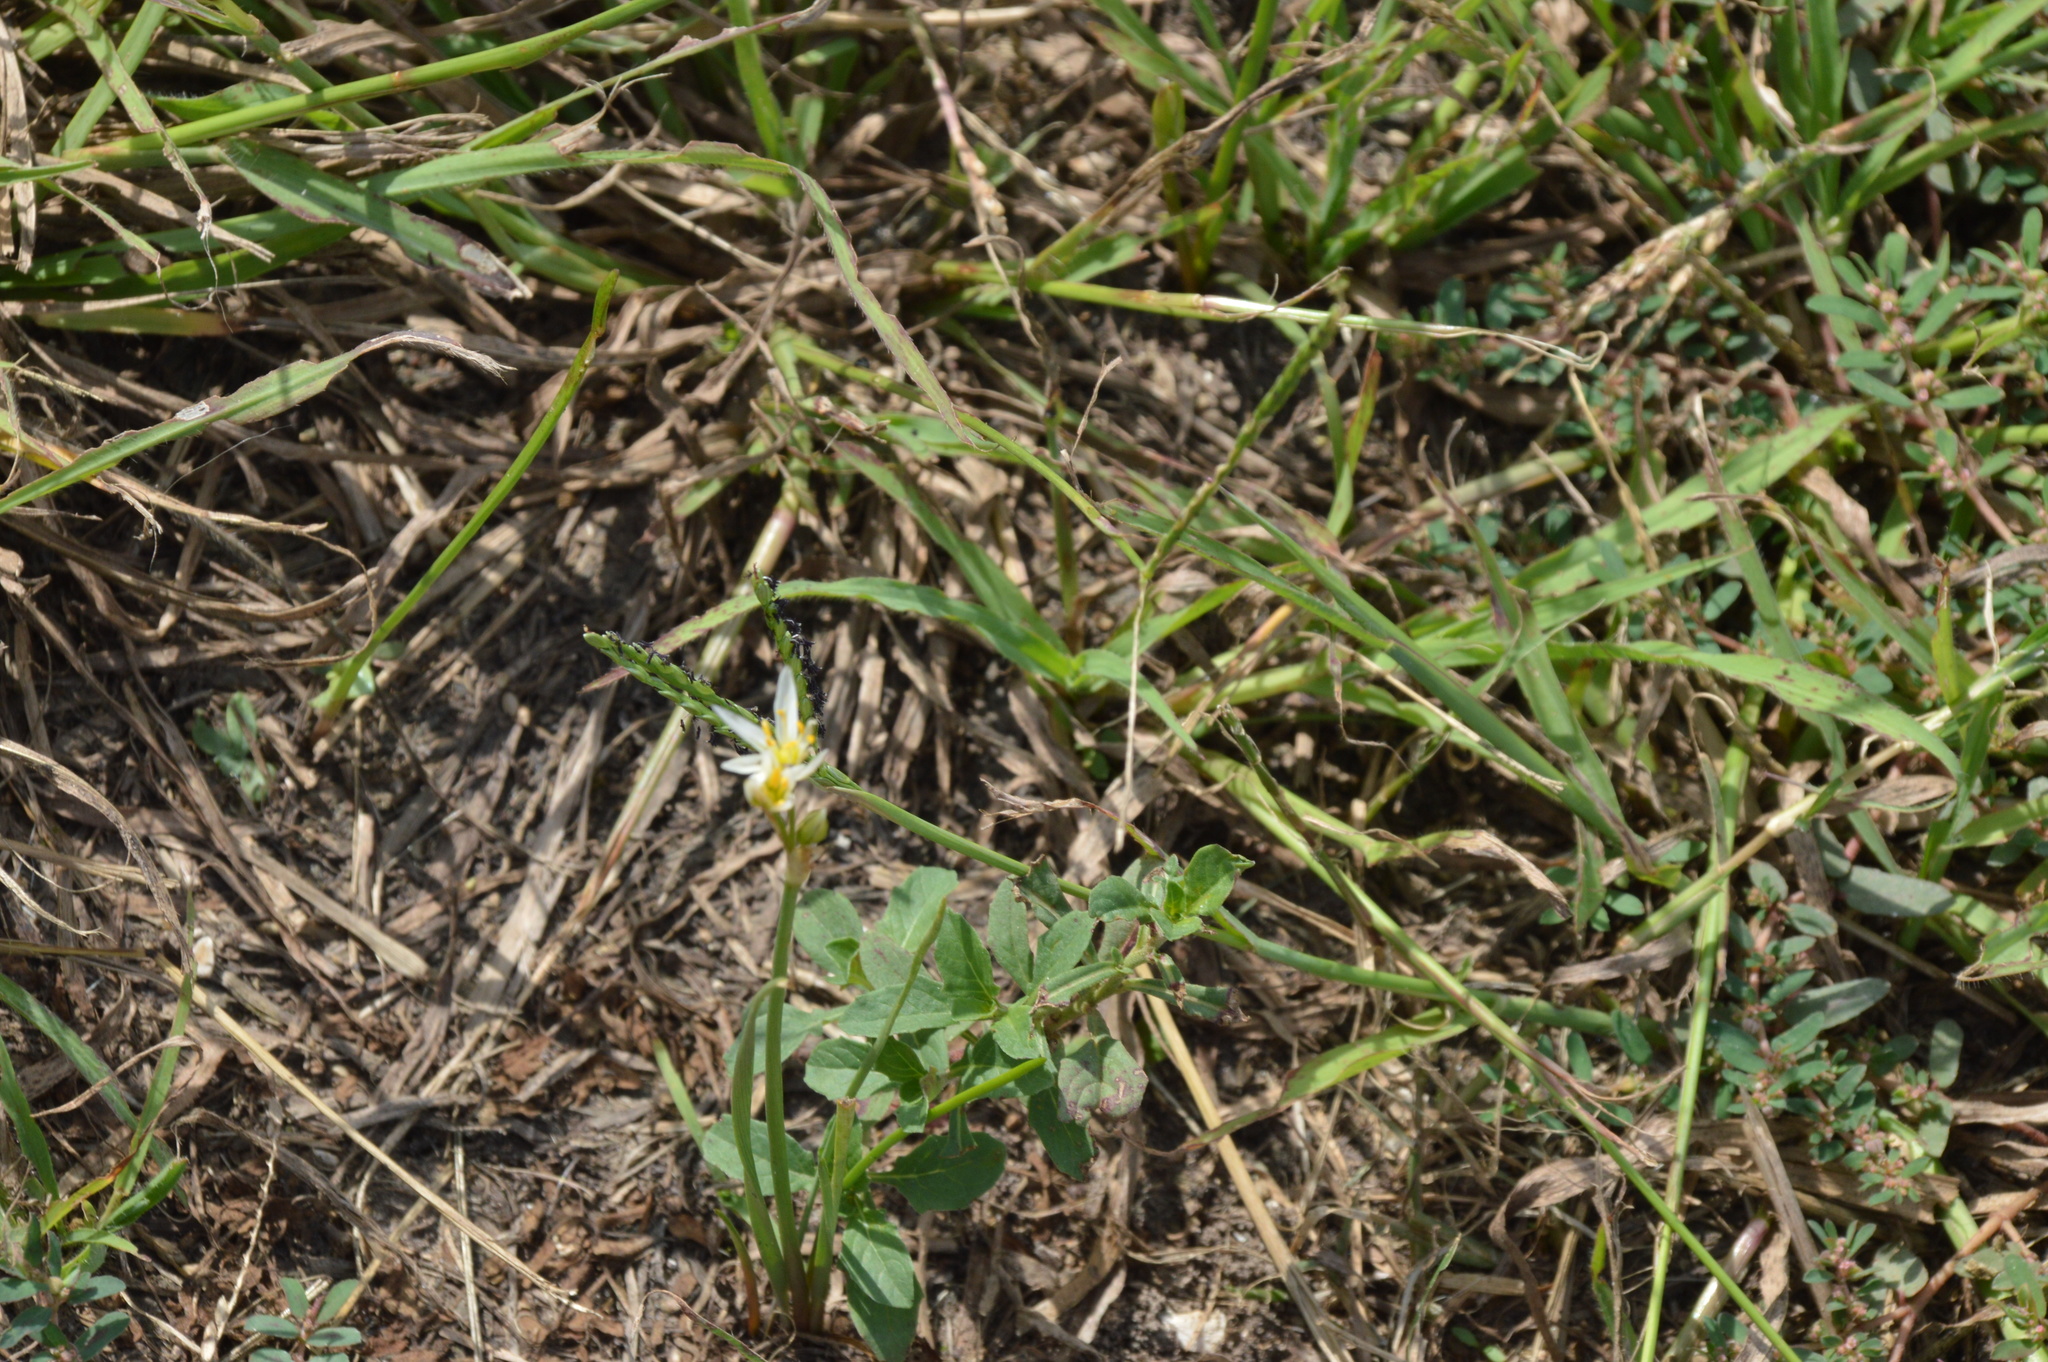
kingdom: Plantae
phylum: Tracheophyta
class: Liliopsida
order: Asparagales
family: Amaryllidaceae
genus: Nothoscordum
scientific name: Nothoscordum bivalve
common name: Crow-poison
